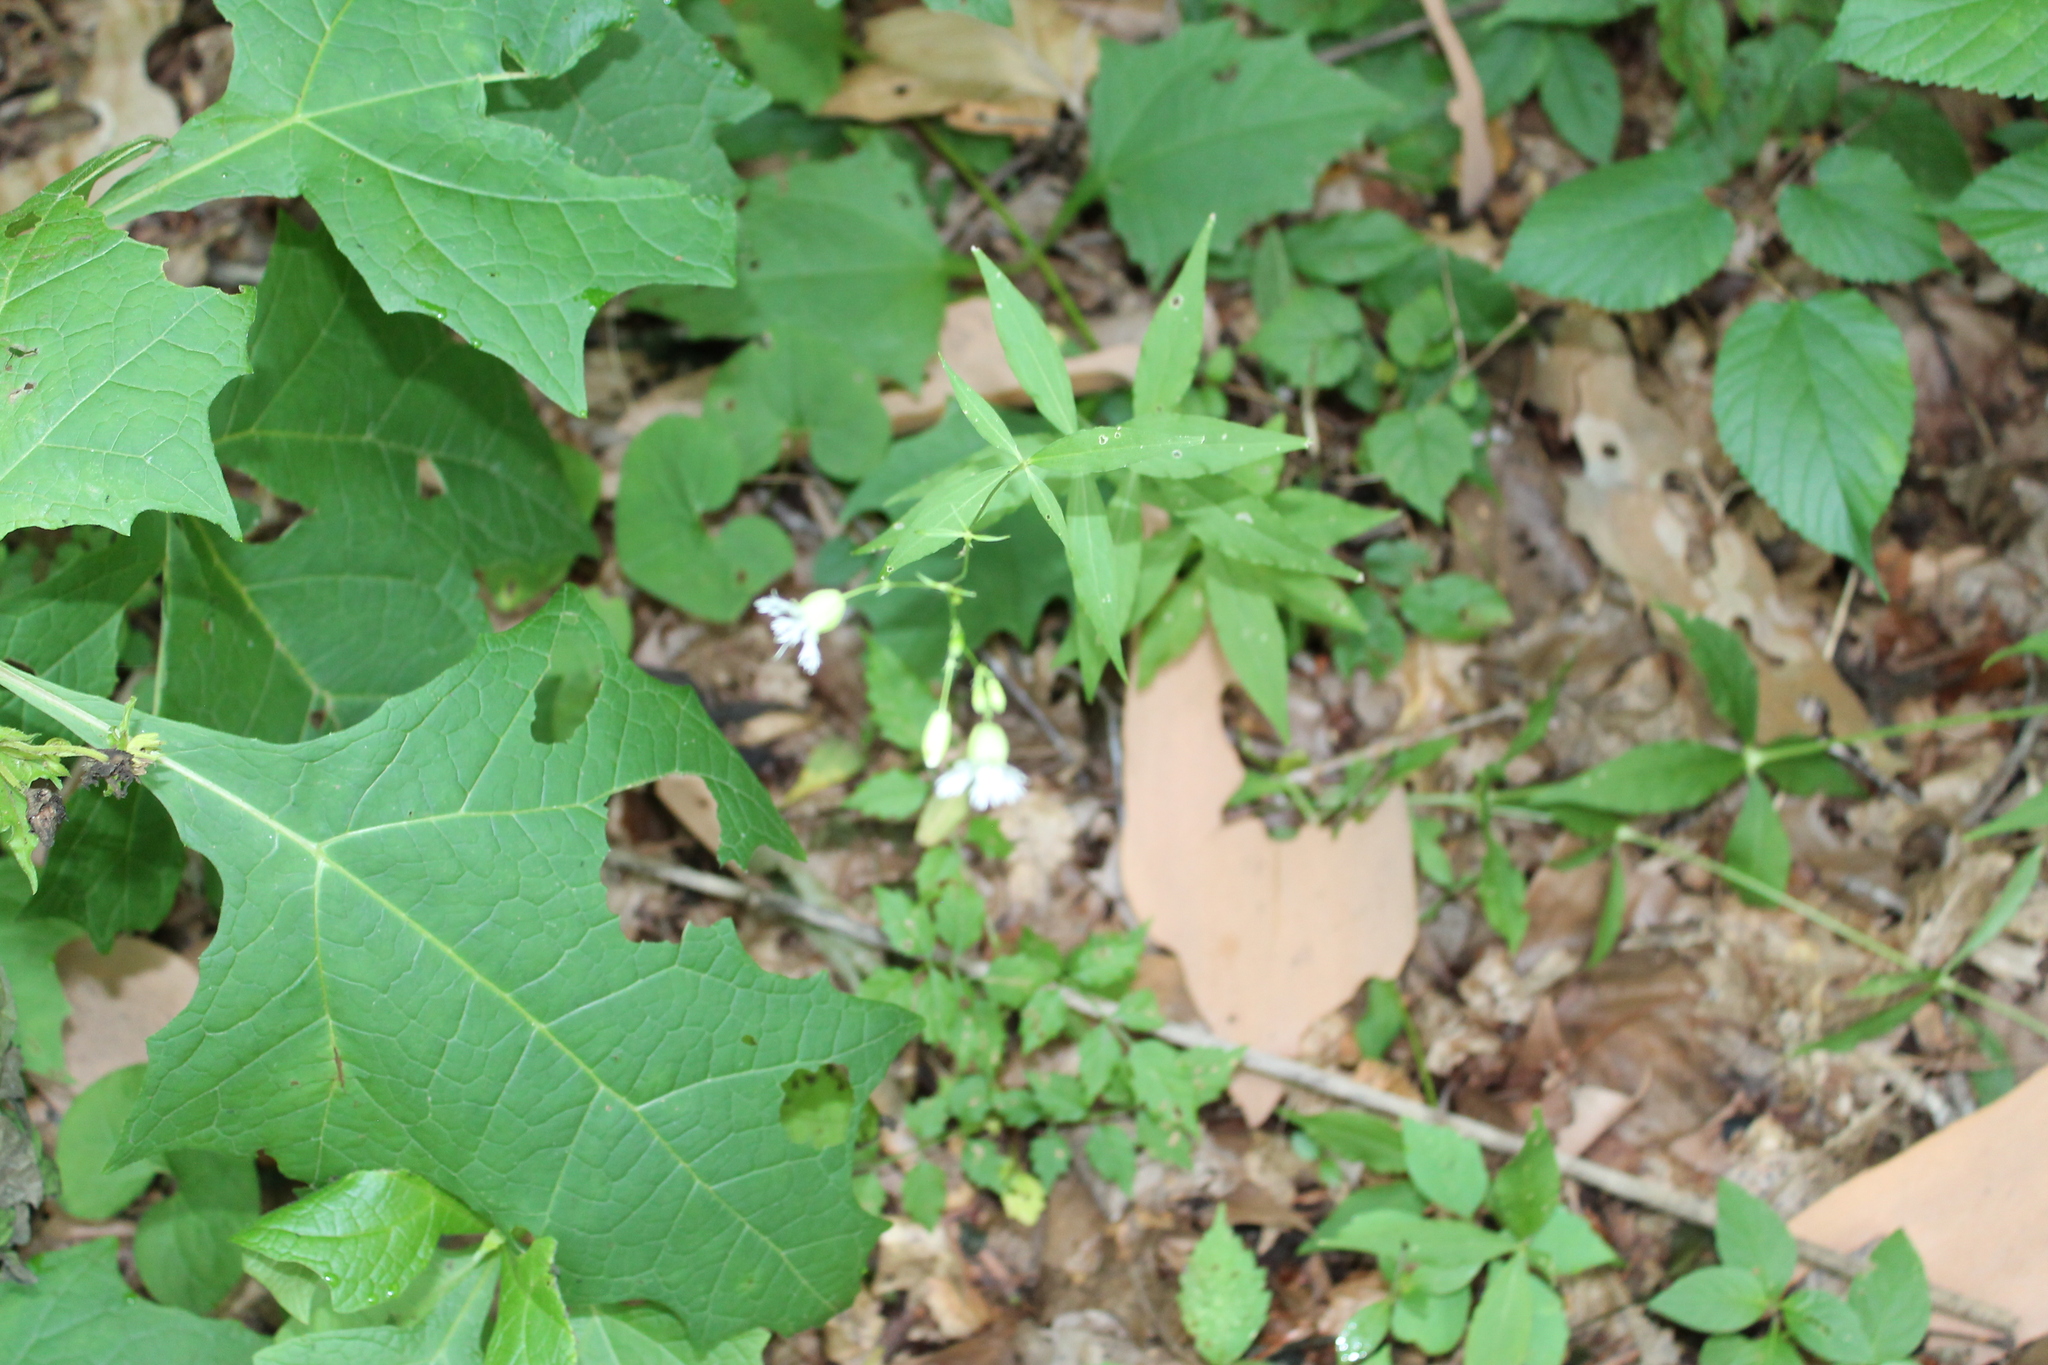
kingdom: Plantae
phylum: Tracheophyta
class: Magnoliopsida
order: Caryophyllales
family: Caryophyllaceae
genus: Silene
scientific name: Silene stellata
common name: Starry campion
